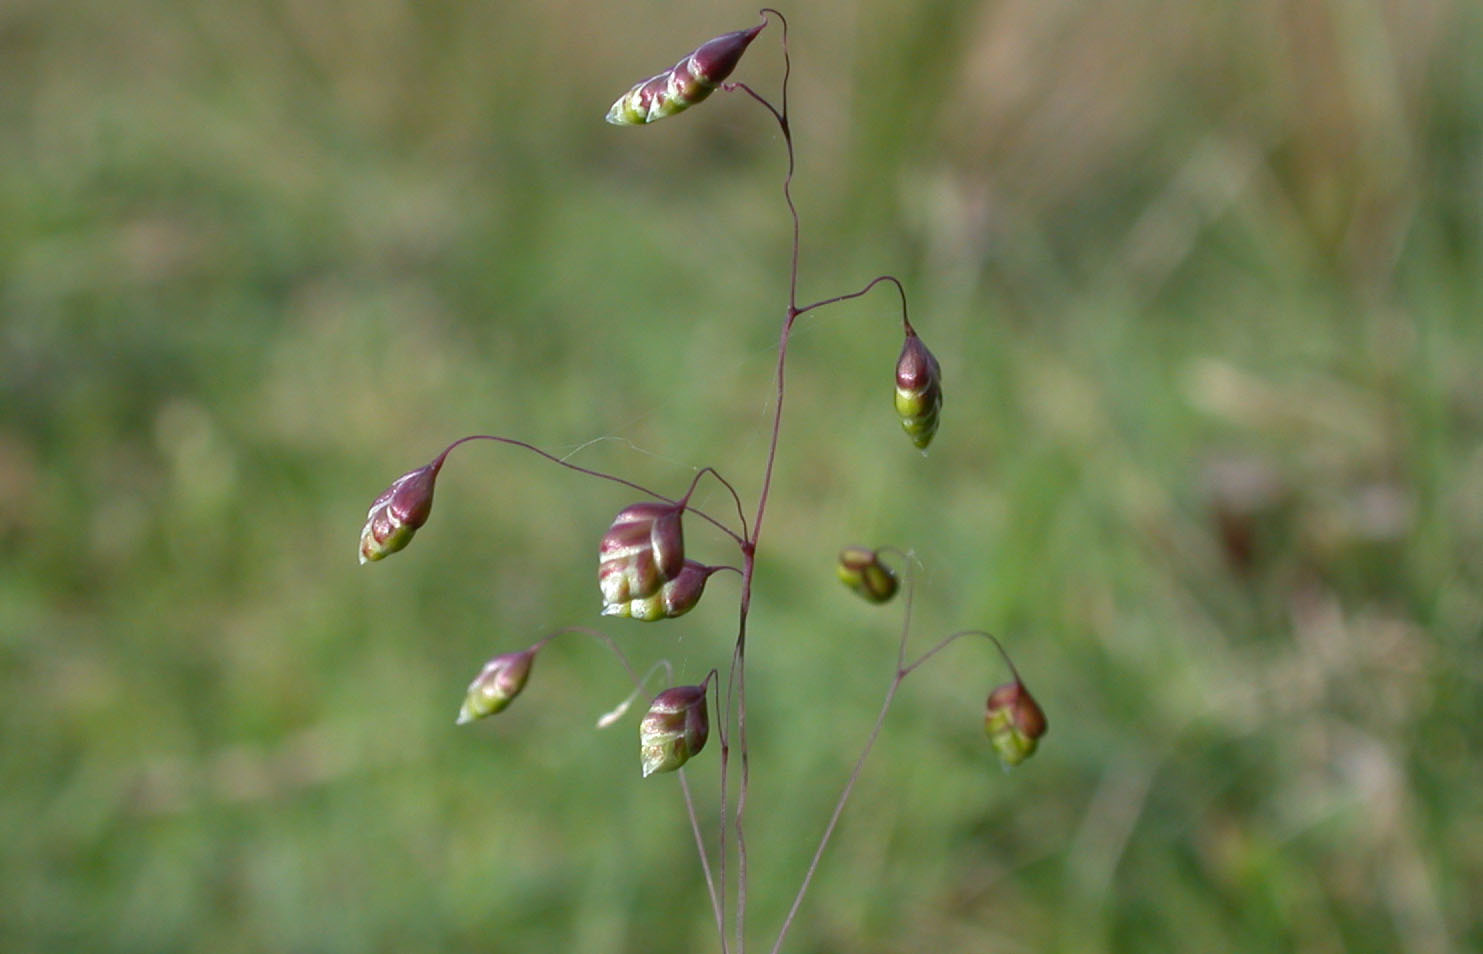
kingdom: Plantae
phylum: Tracheophyta
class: Liliopsida
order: Poales
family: Poaceae
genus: Briza
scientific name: Briza media
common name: Quaking grass
